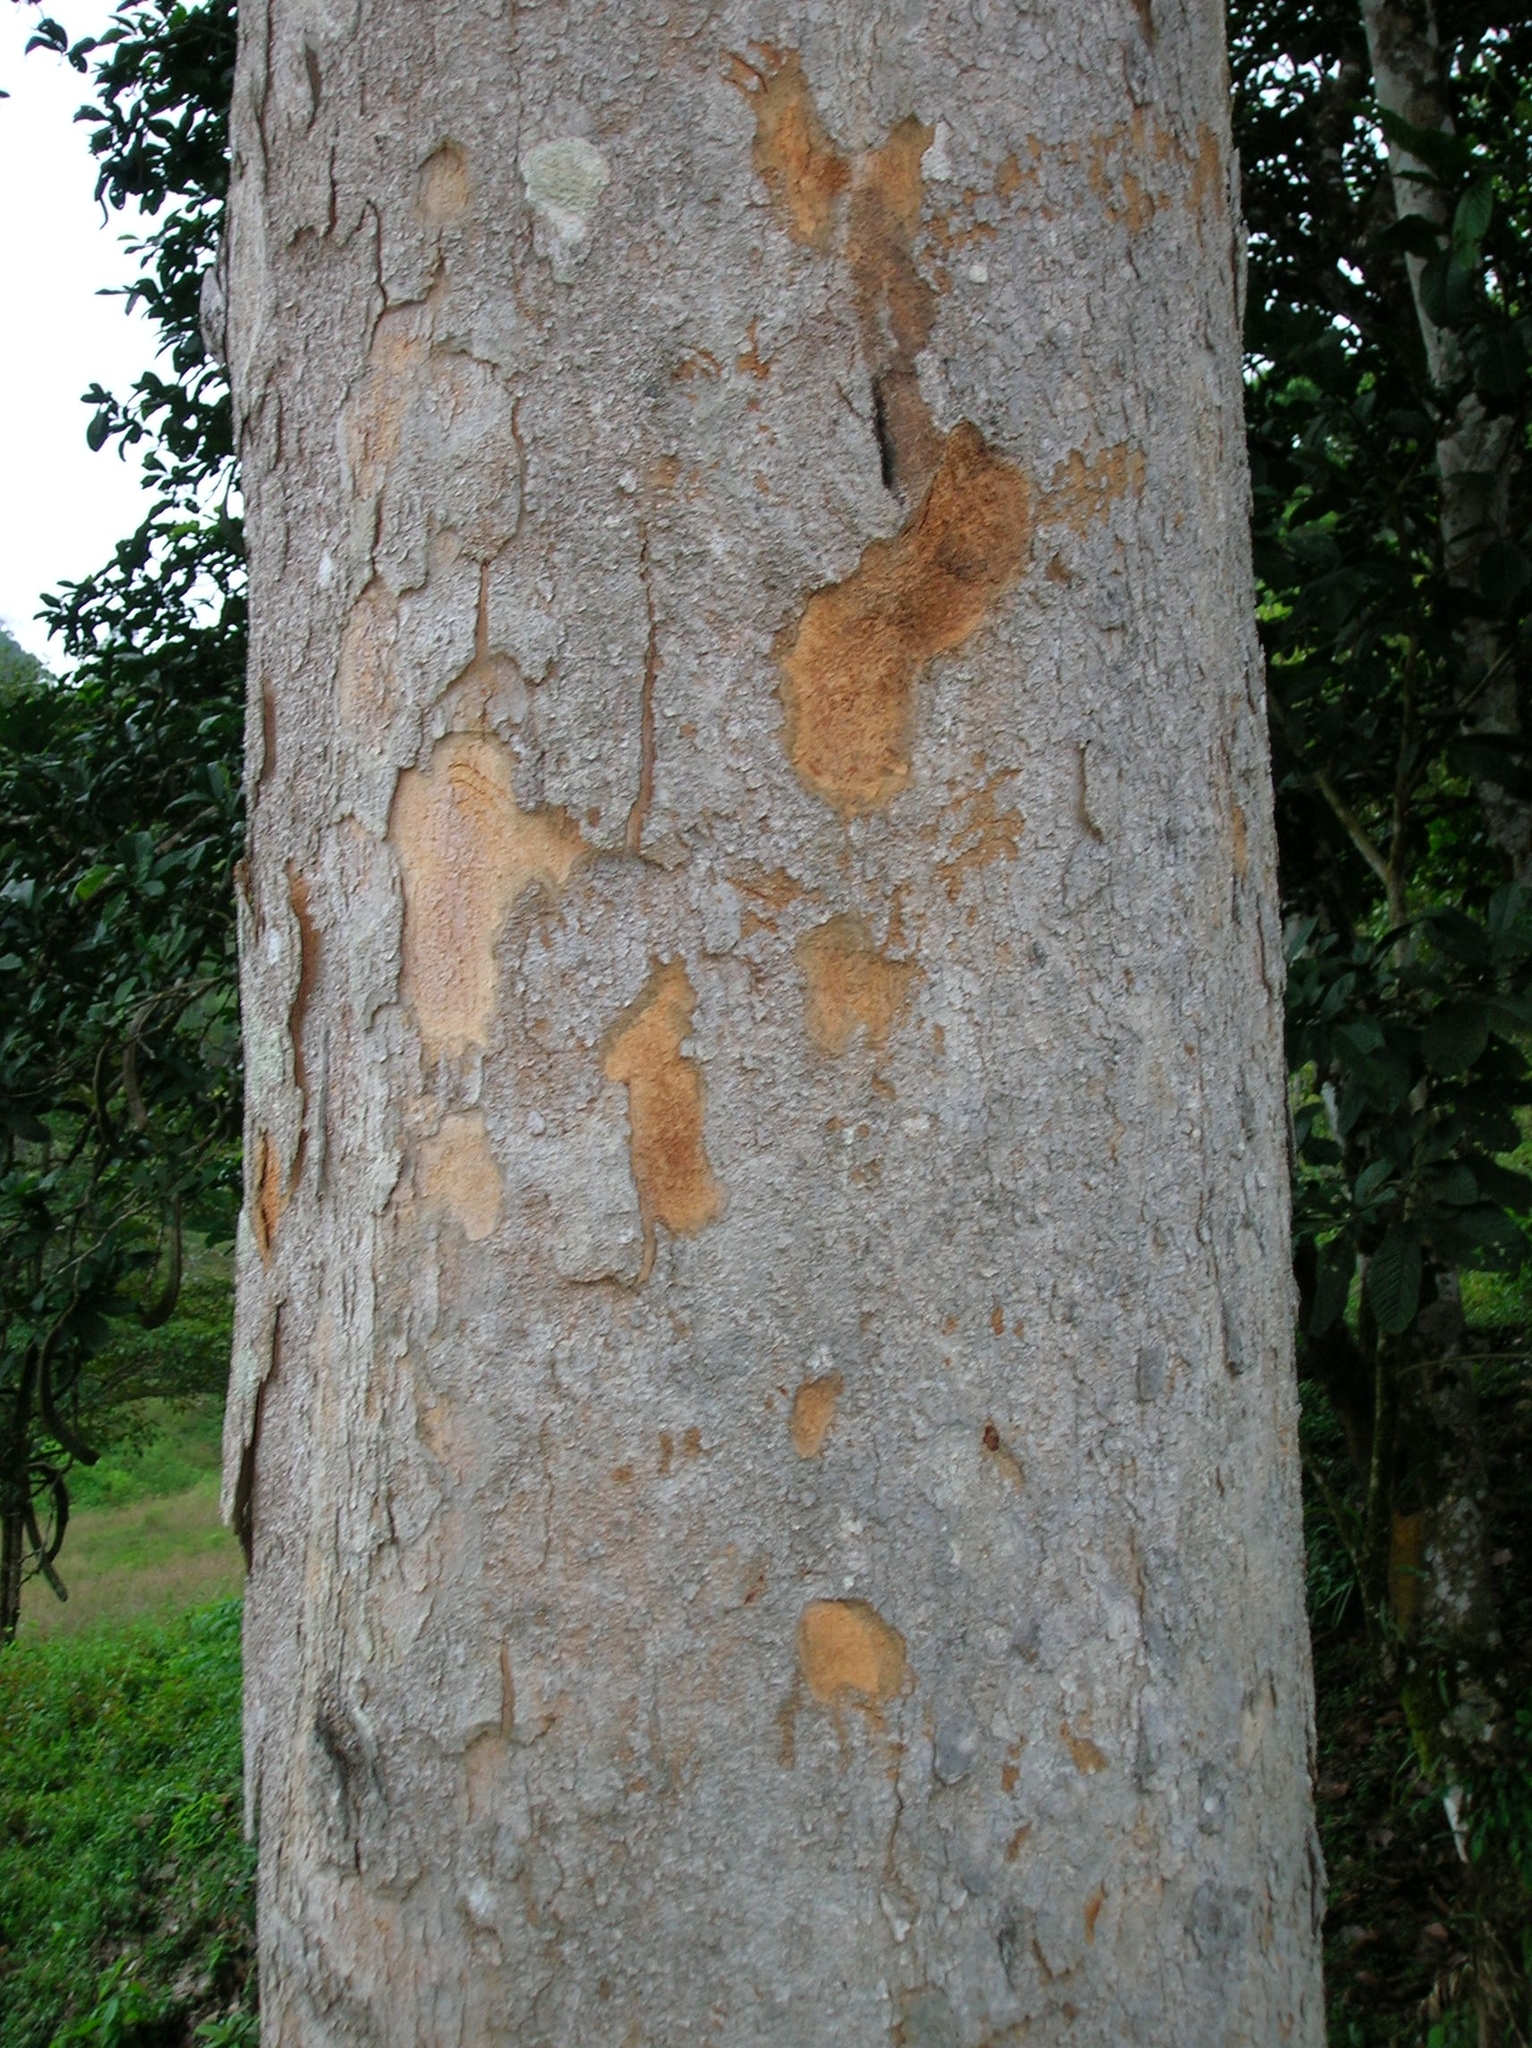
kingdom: Plantae
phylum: Tracheophyta
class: Magnoliopsida
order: Fabales
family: Fabaceae
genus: Parkia
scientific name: Parkia pendula
